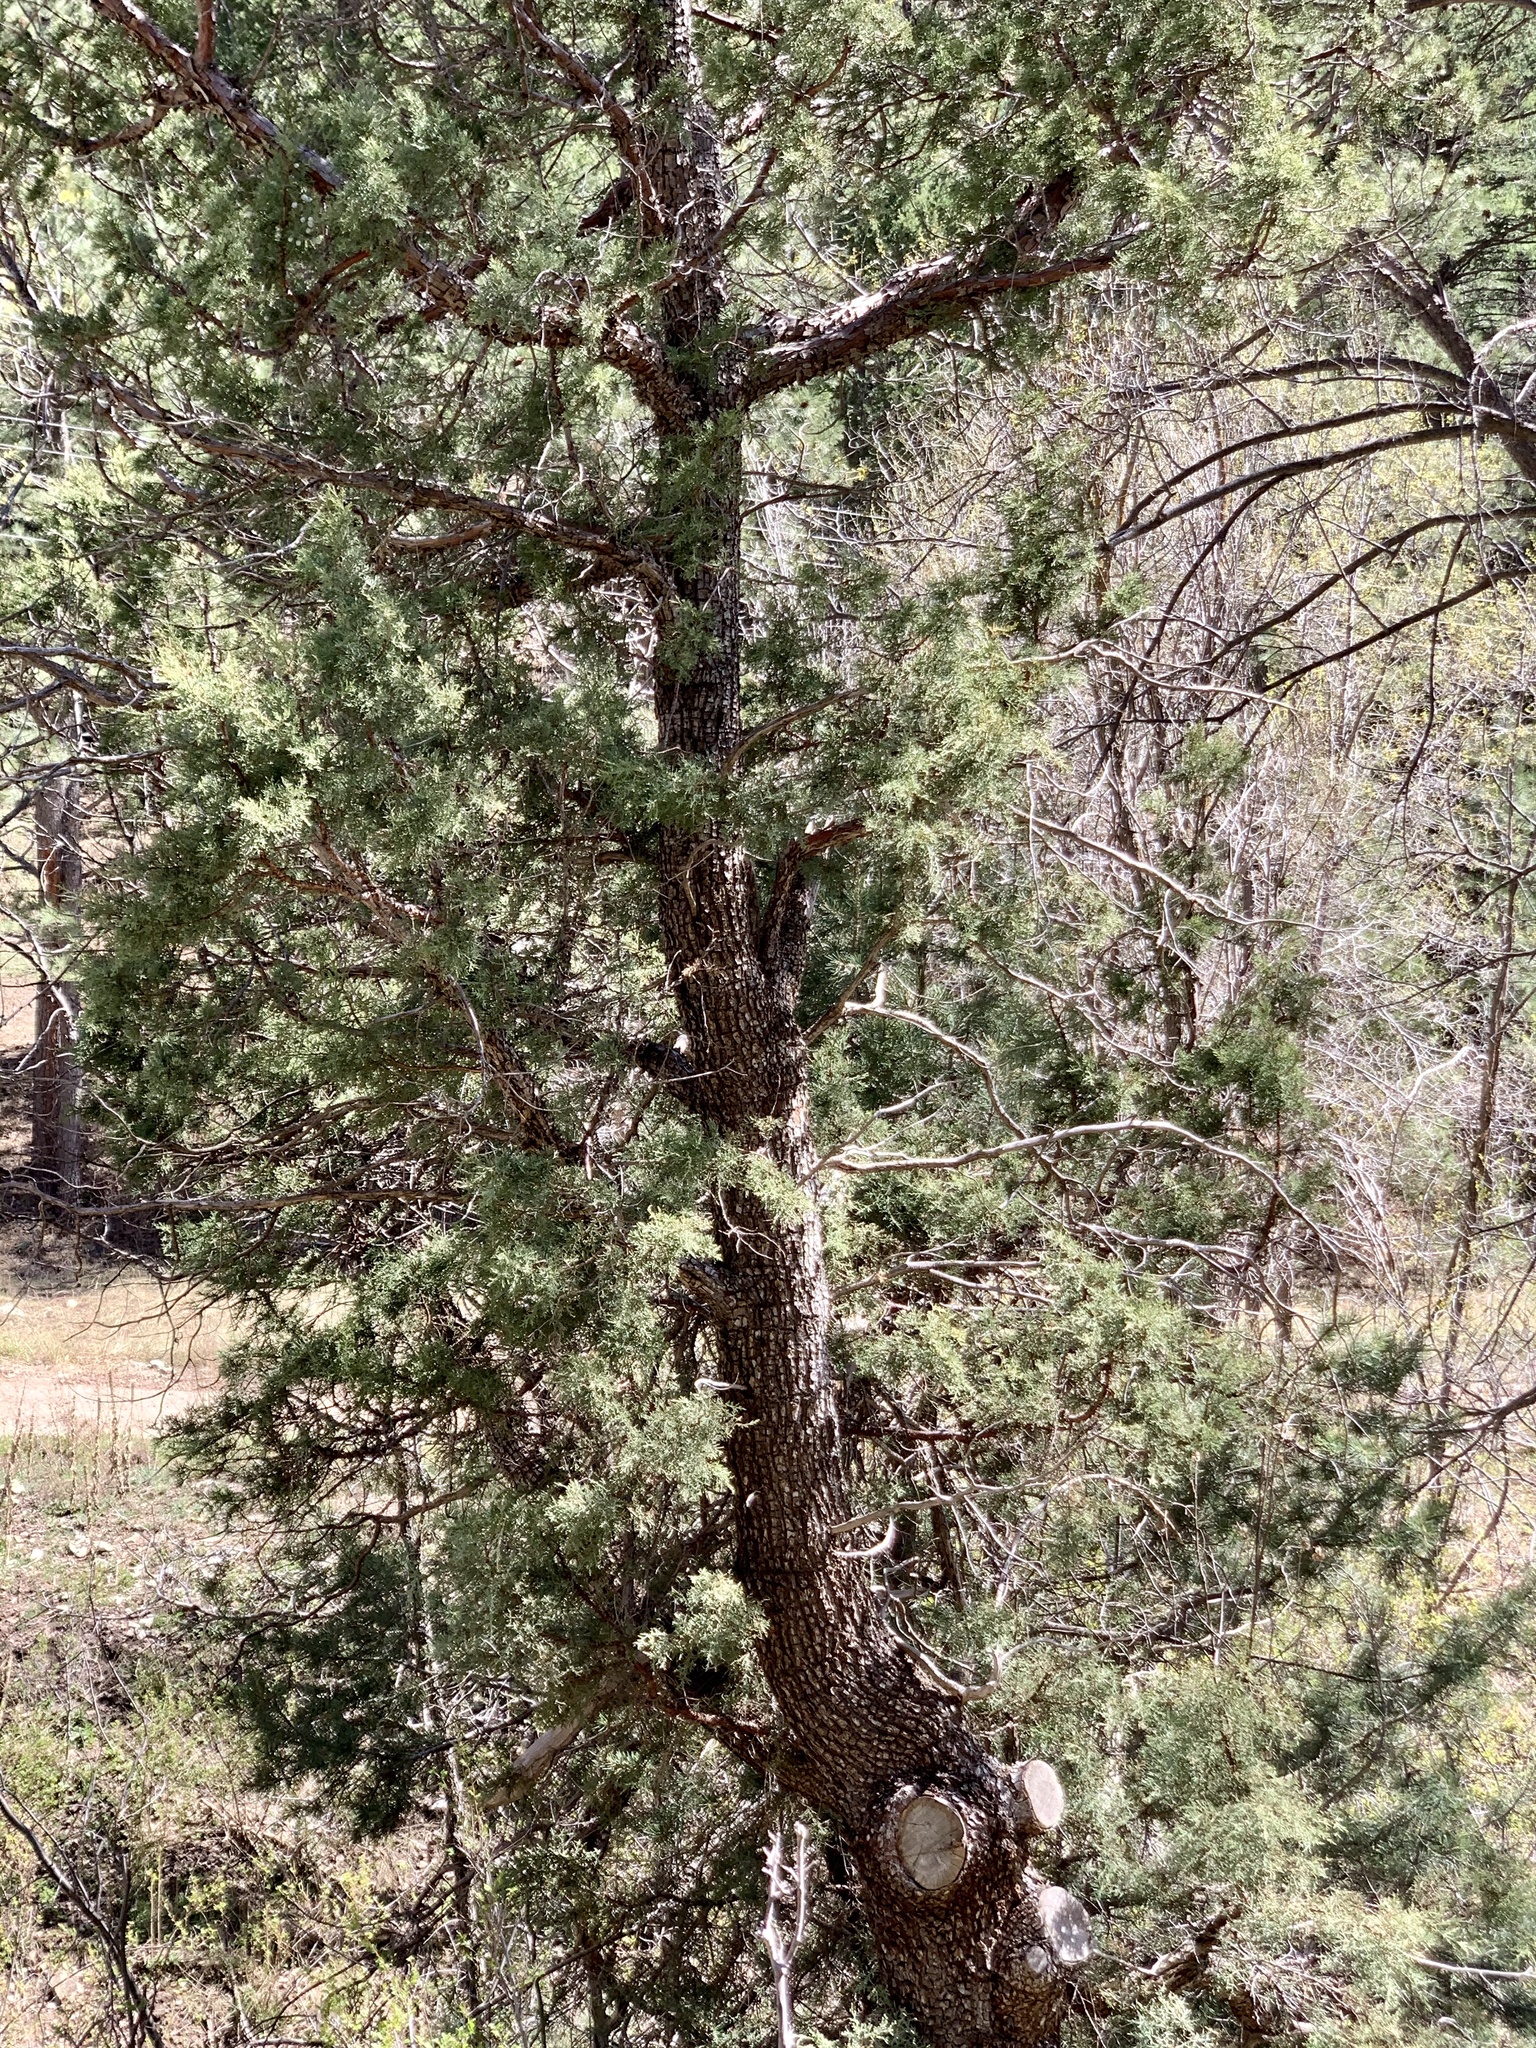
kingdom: Plantae
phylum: Tracheophyta
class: Pinopsida
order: Pinales
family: Cupressaceae
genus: Juniperus
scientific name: Juniperus deppeana
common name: Alligator juniper
